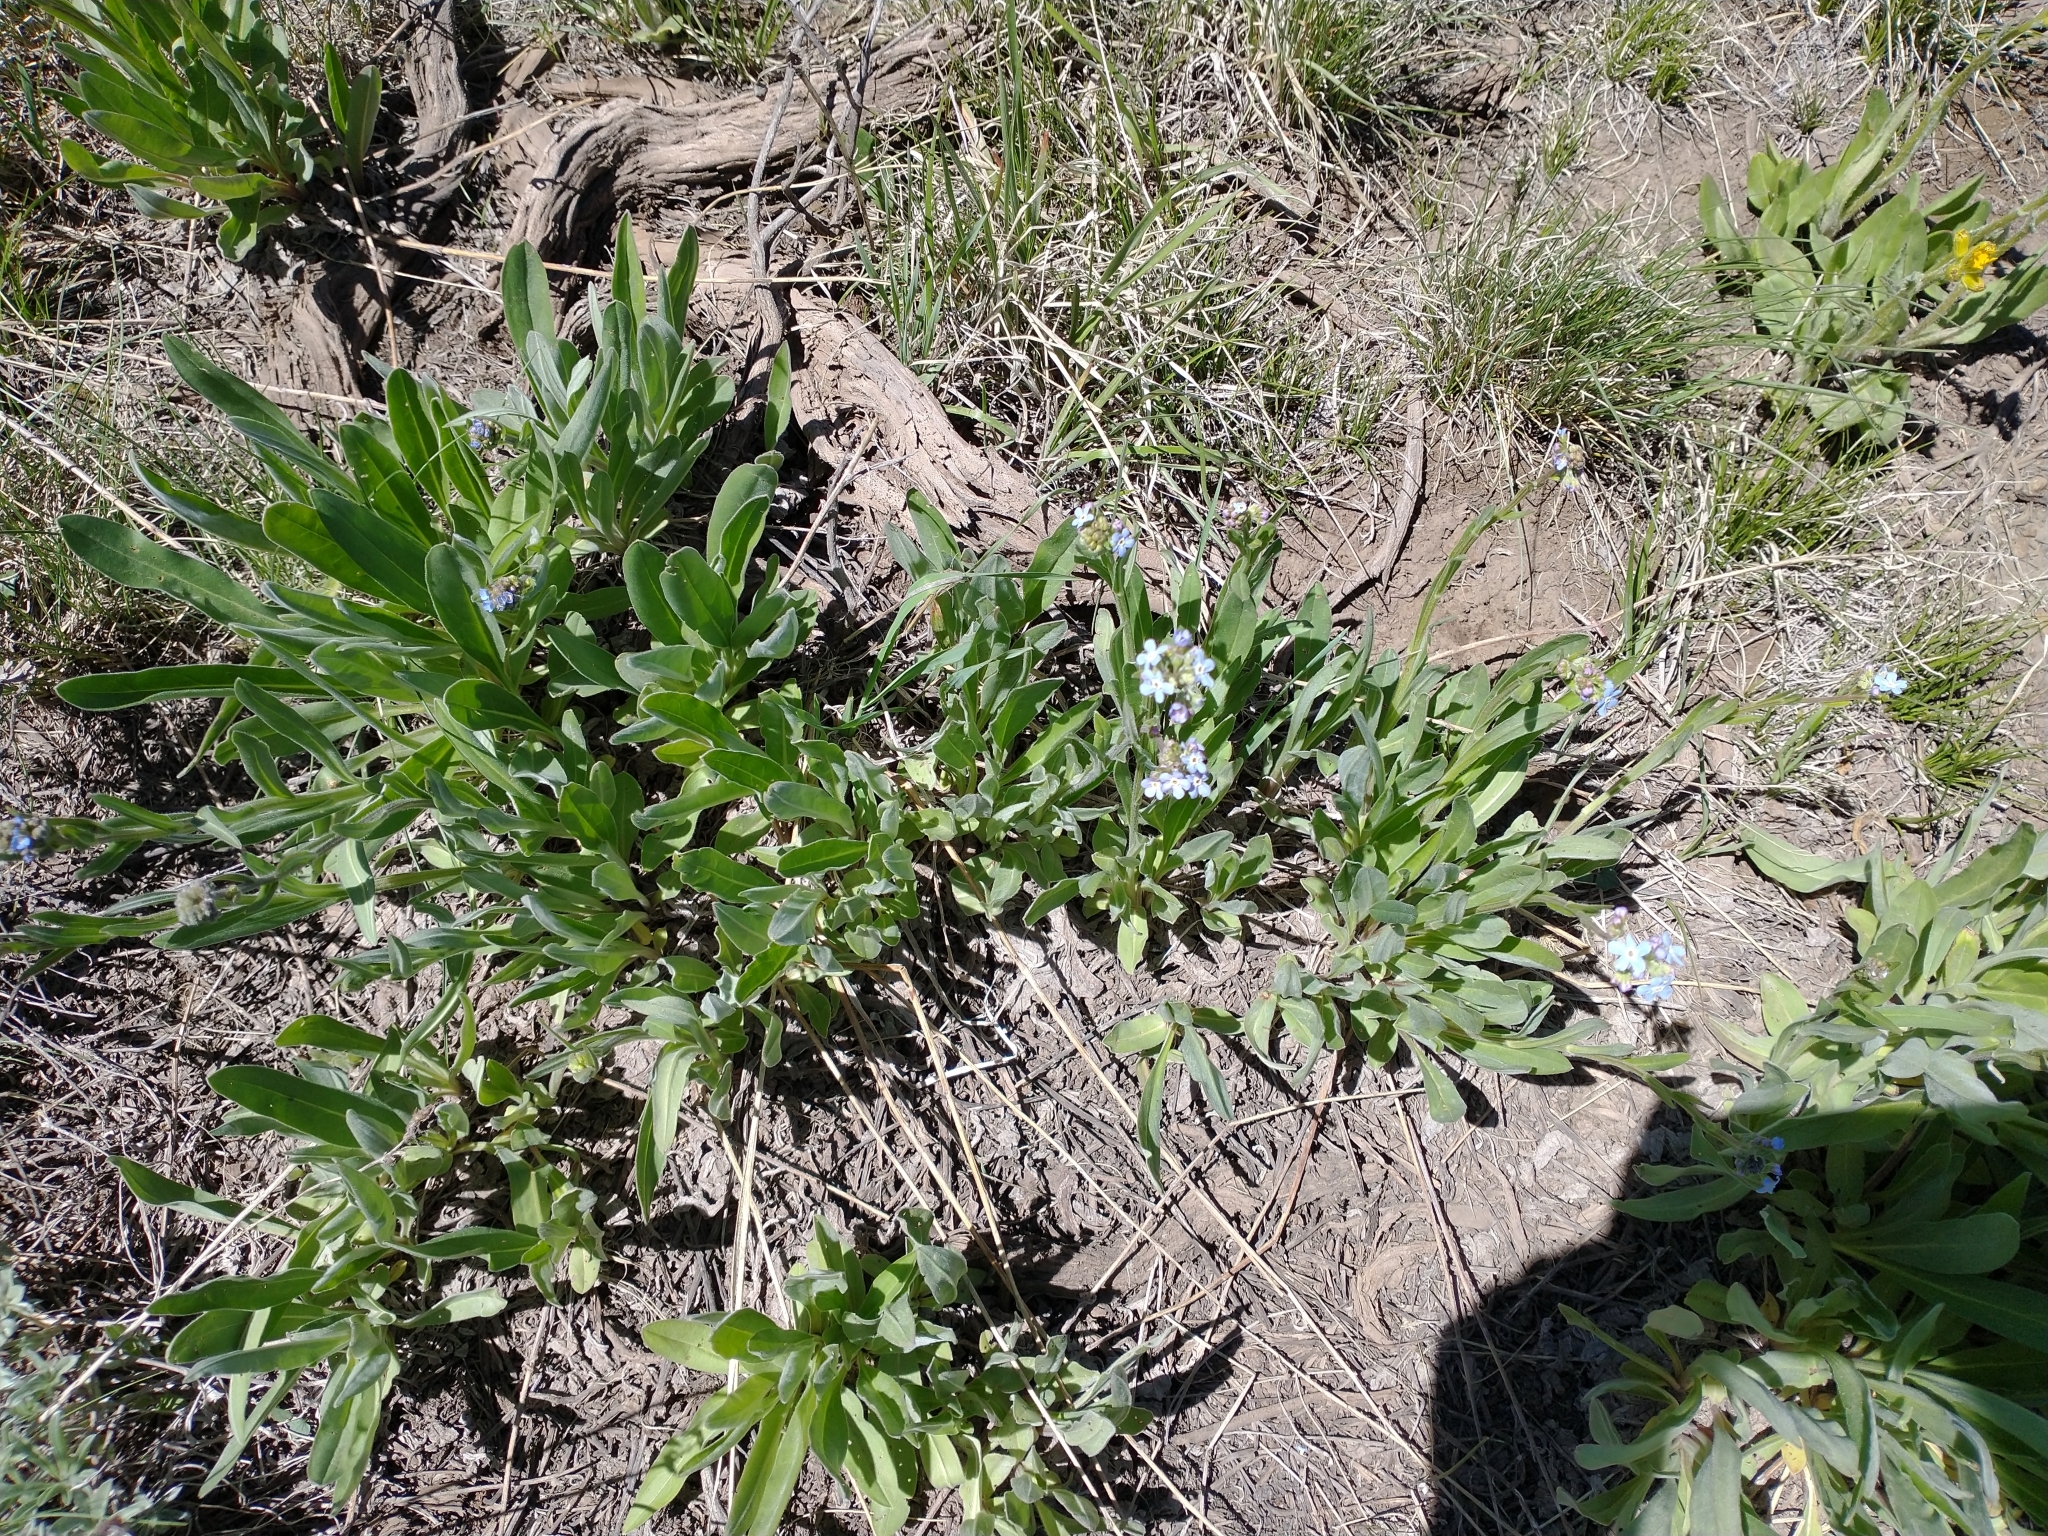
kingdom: Plantae
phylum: Tracheophyta
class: Magnoliopsida
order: Boraginales
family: Boraginaceae
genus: Hackelia
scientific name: Hackelia micrantha
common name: Meadow stickseed
